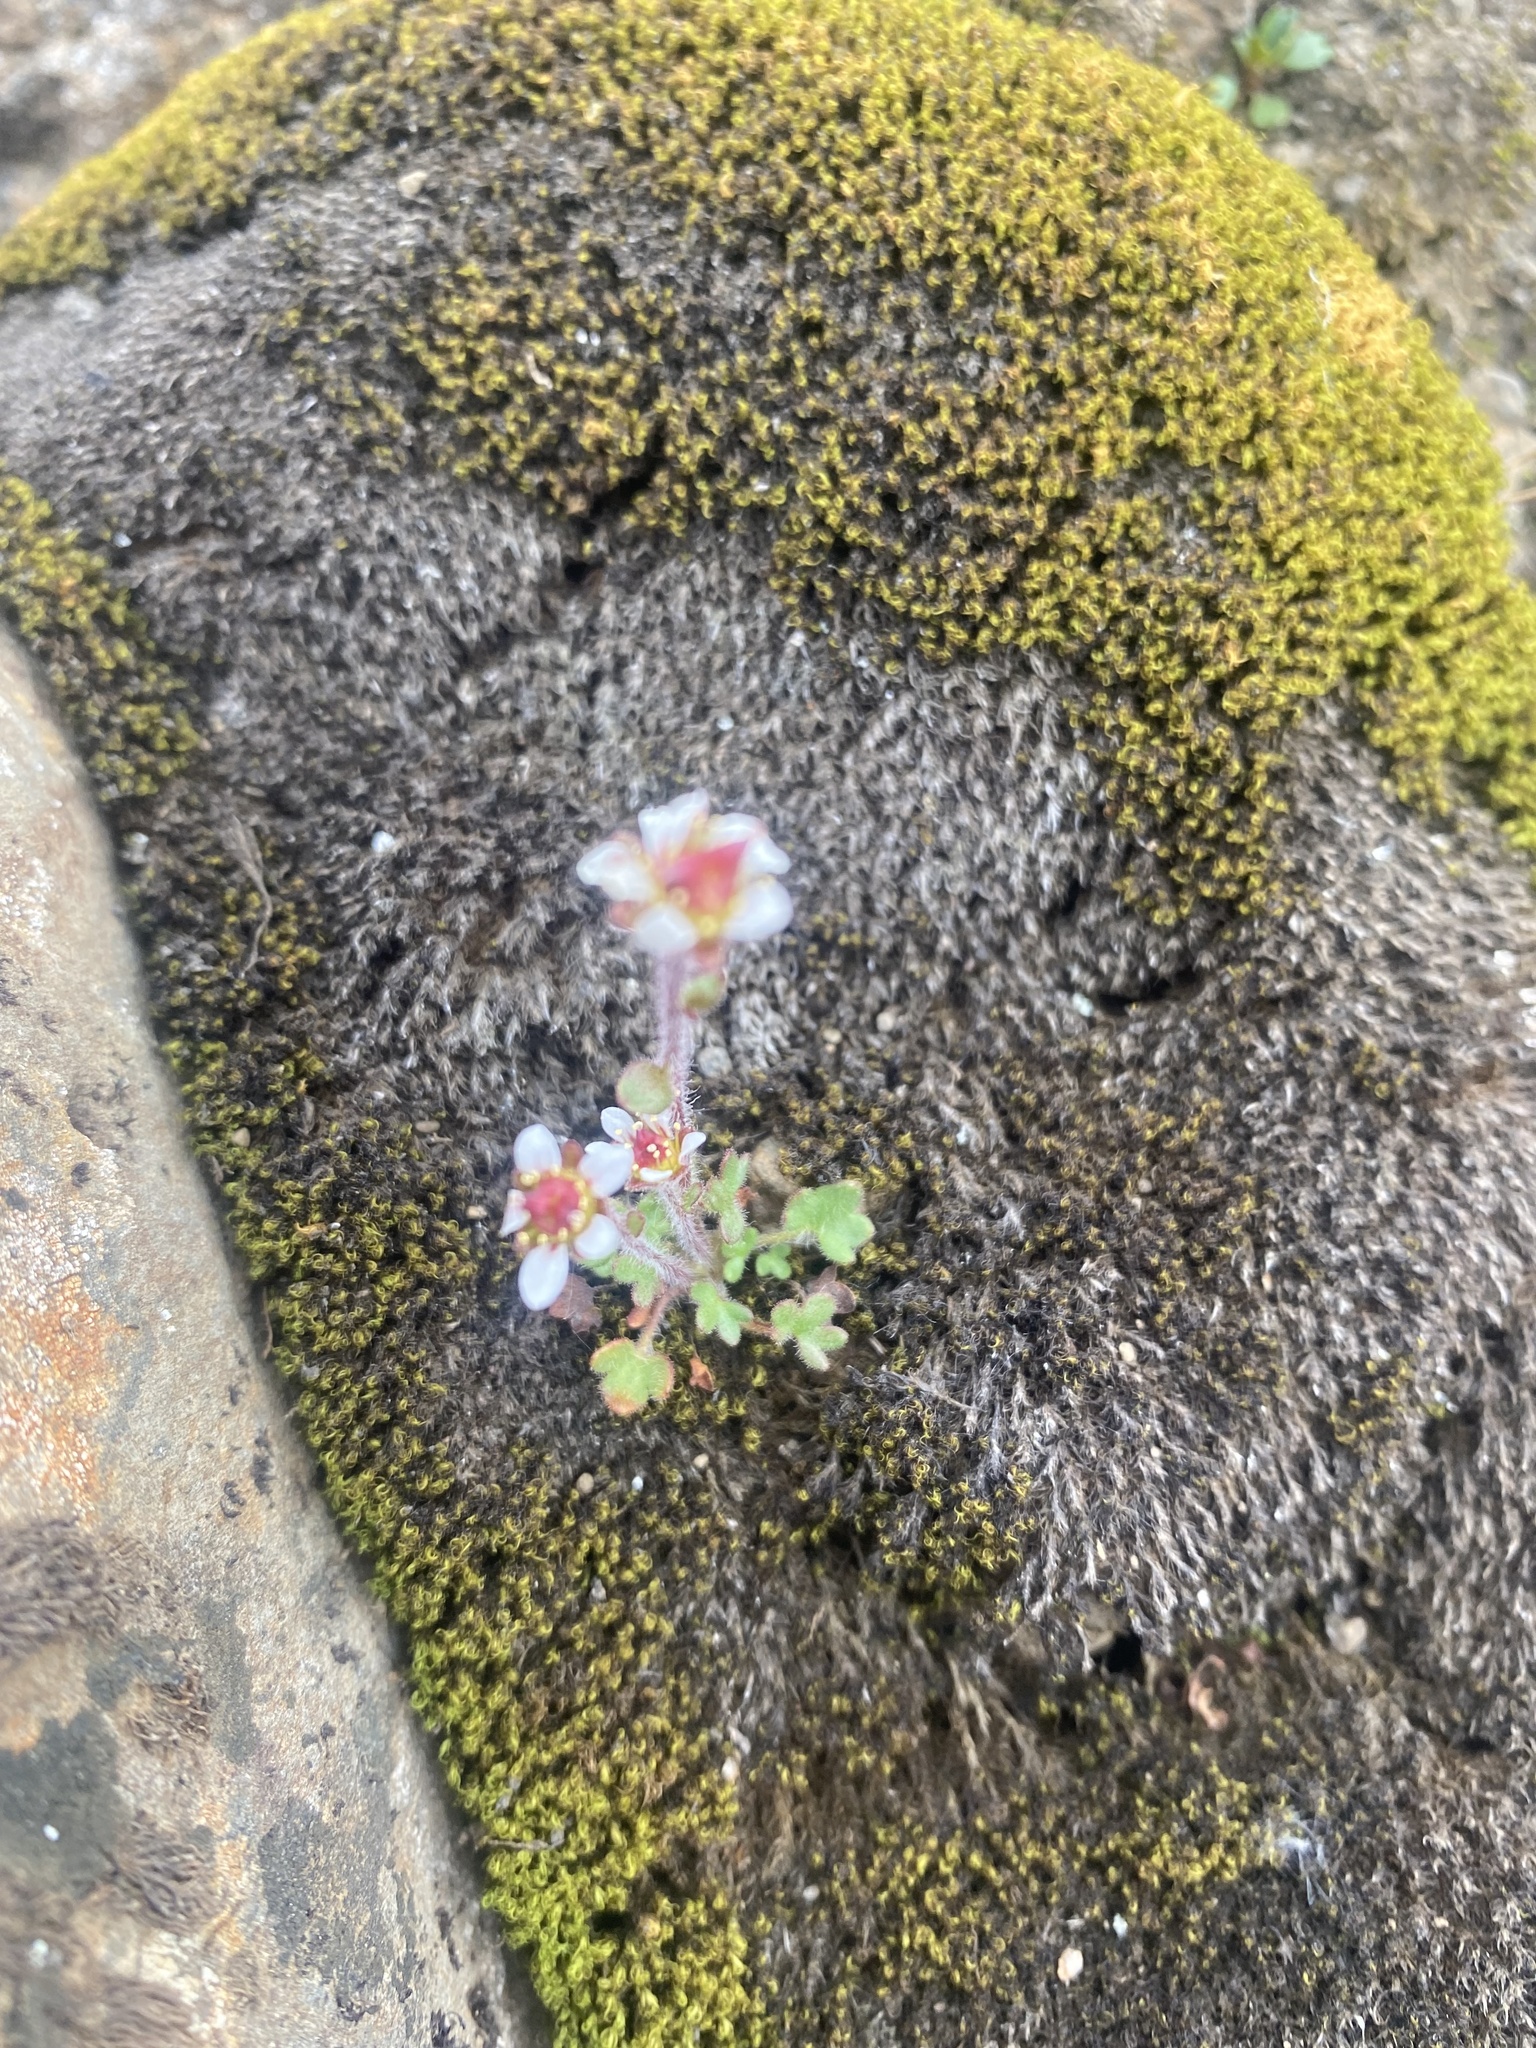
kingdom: Plantae
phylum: Tracheophyta
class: Magnoliopsida
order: Saxifragales
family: Saxifragaceae
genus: Saxifraga
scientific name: Saxifraga hyperborea
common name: Arctic saxifrage
